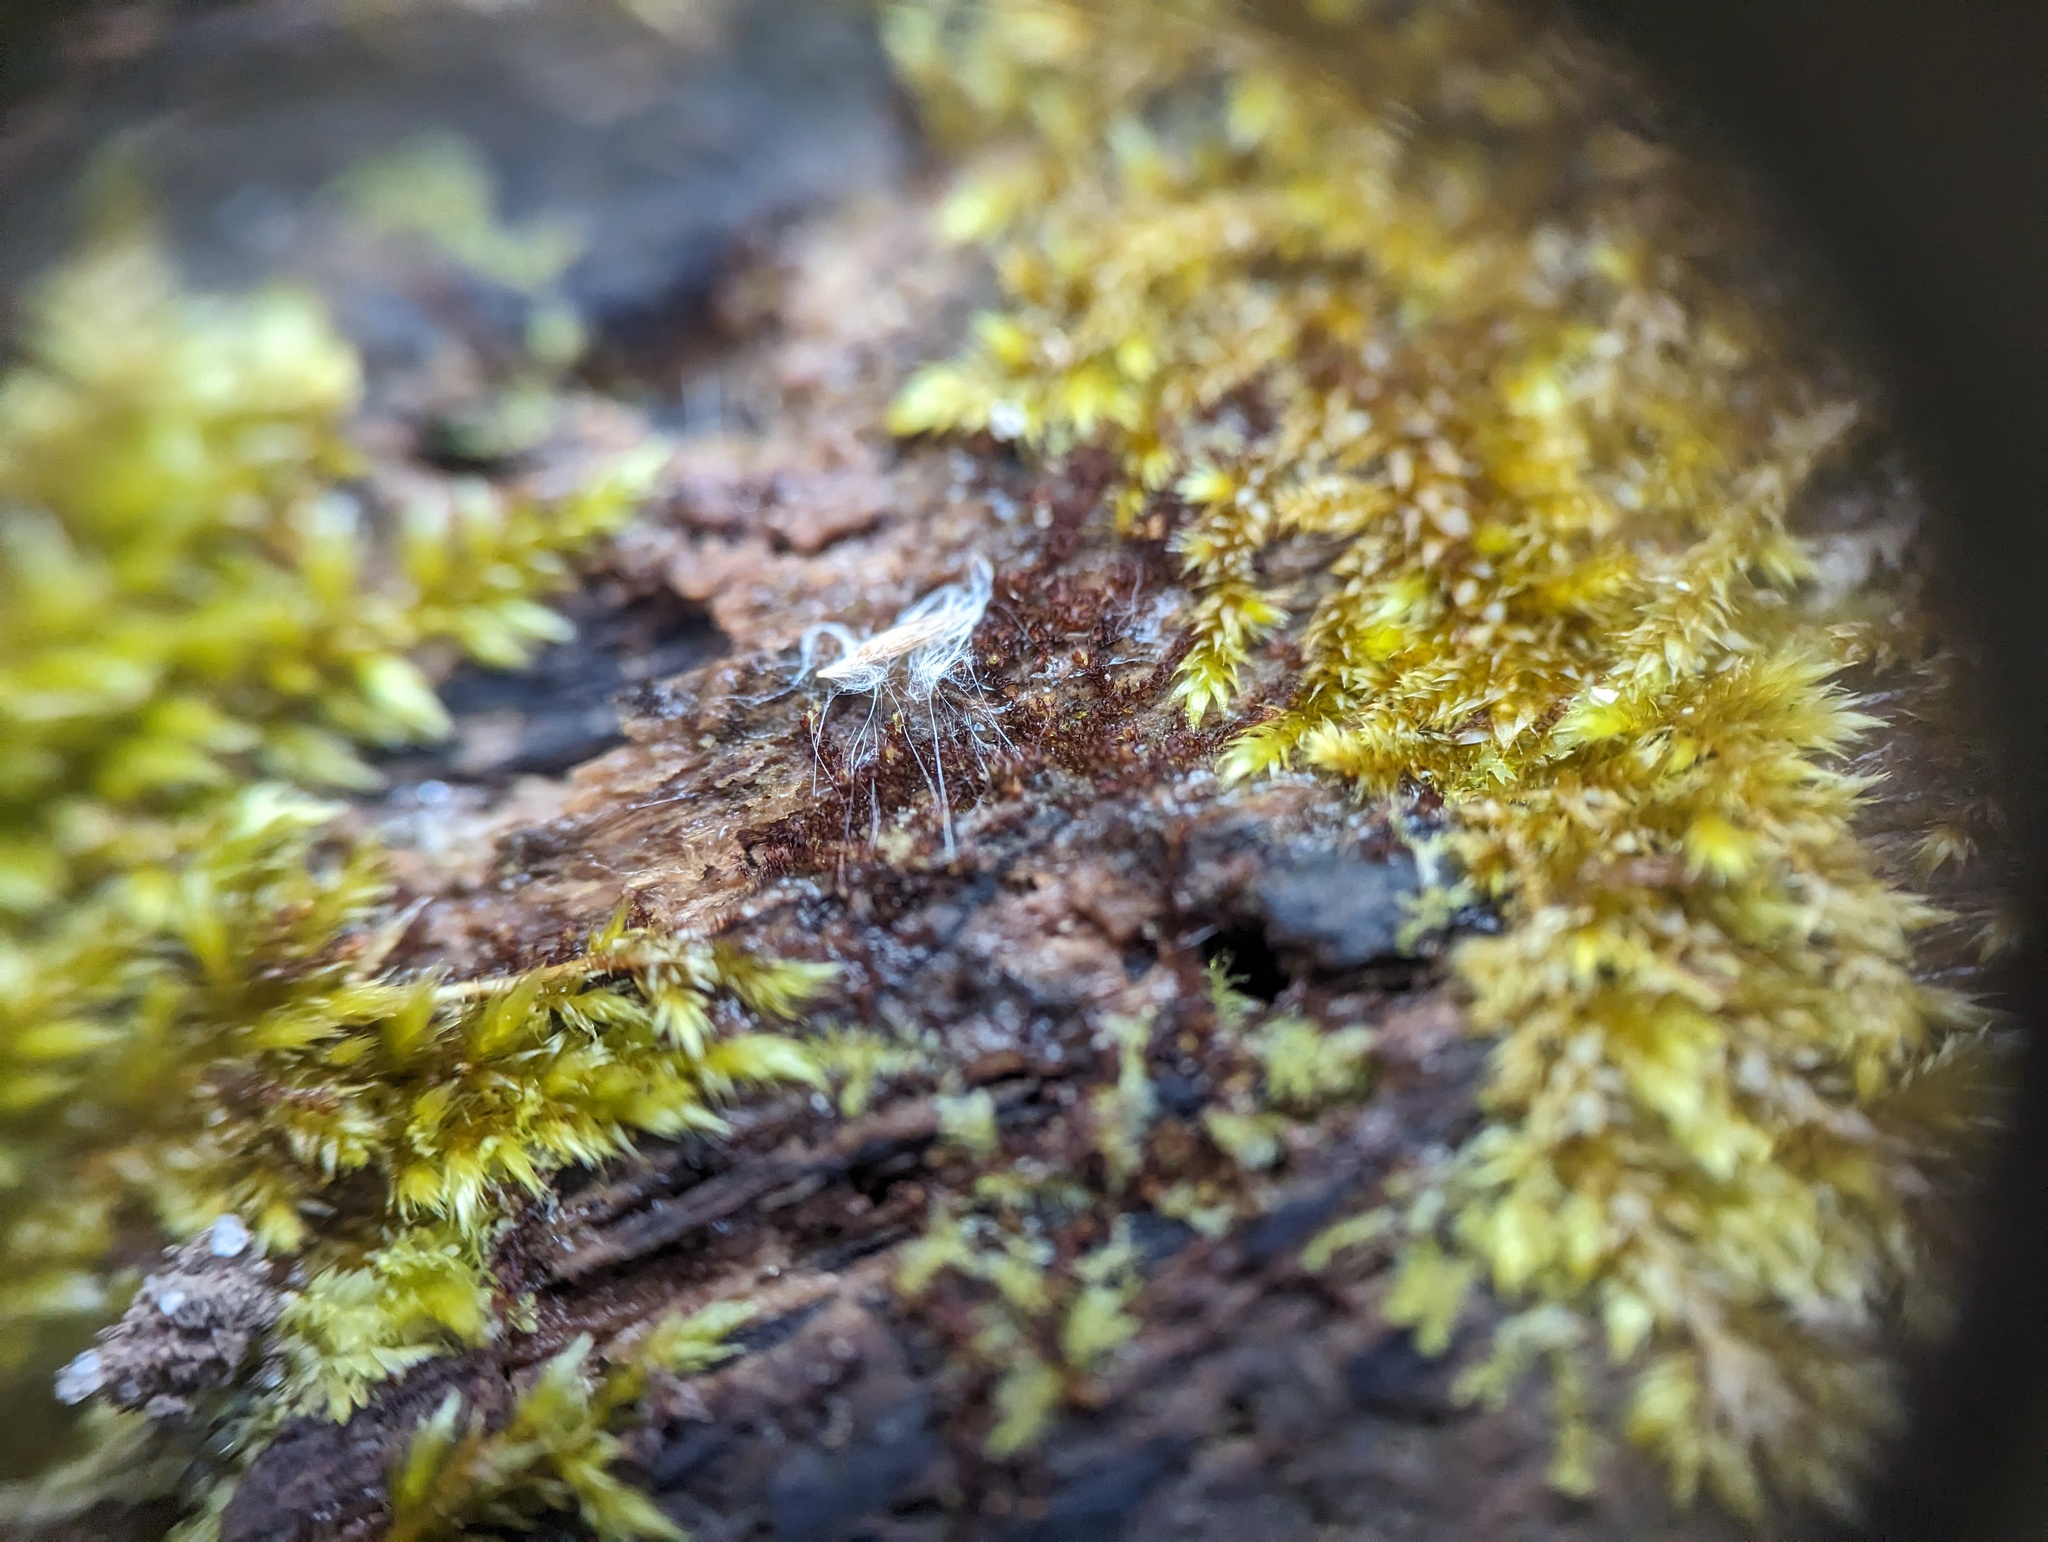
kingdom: Plantae
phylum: Marchantiophyta
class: Jungermanniopsida
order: Jungermanniales
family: Cephaloziaceae
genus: Nowellia
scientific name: Nowellia curvifolia
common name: Wood rustwort
